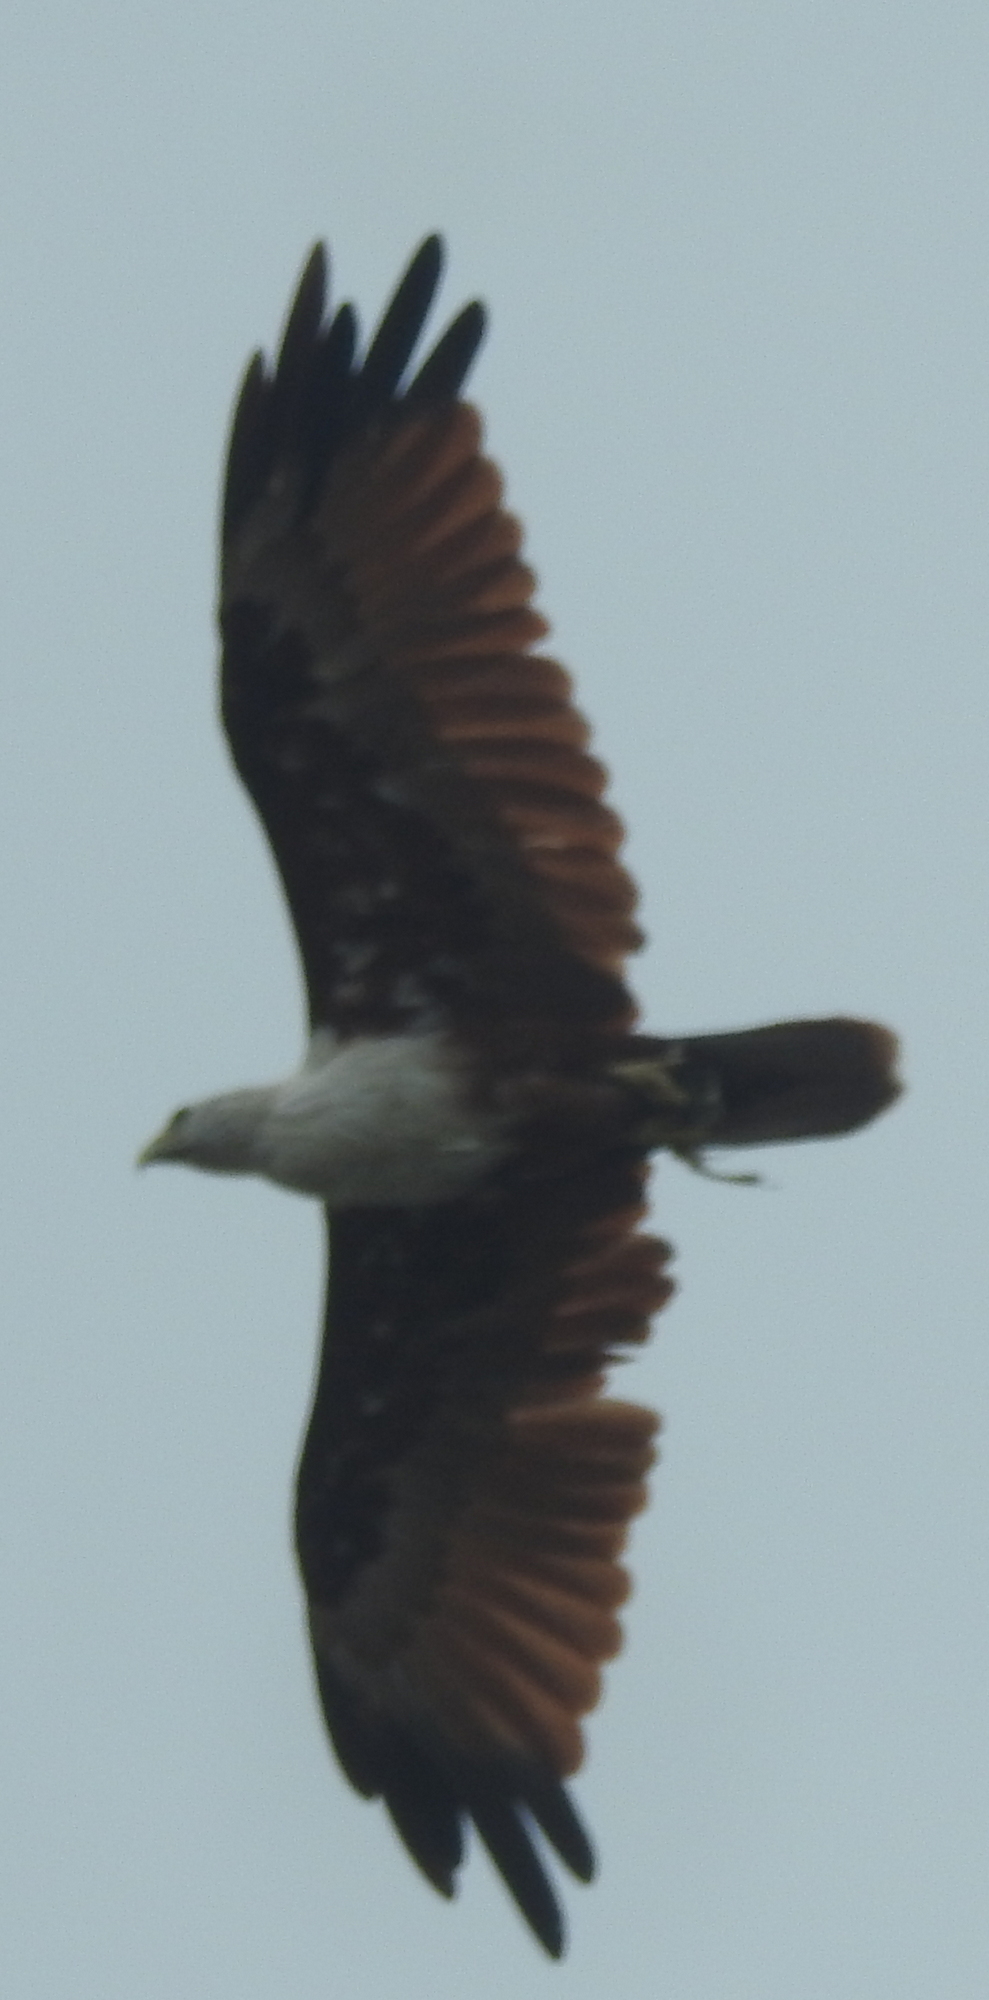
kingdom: Animalia
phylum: Chordata
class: Aves
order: Accipitriformes
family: Accipitridae
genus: Haliastur
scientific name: Haliastur indus
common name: Brahminy kite
